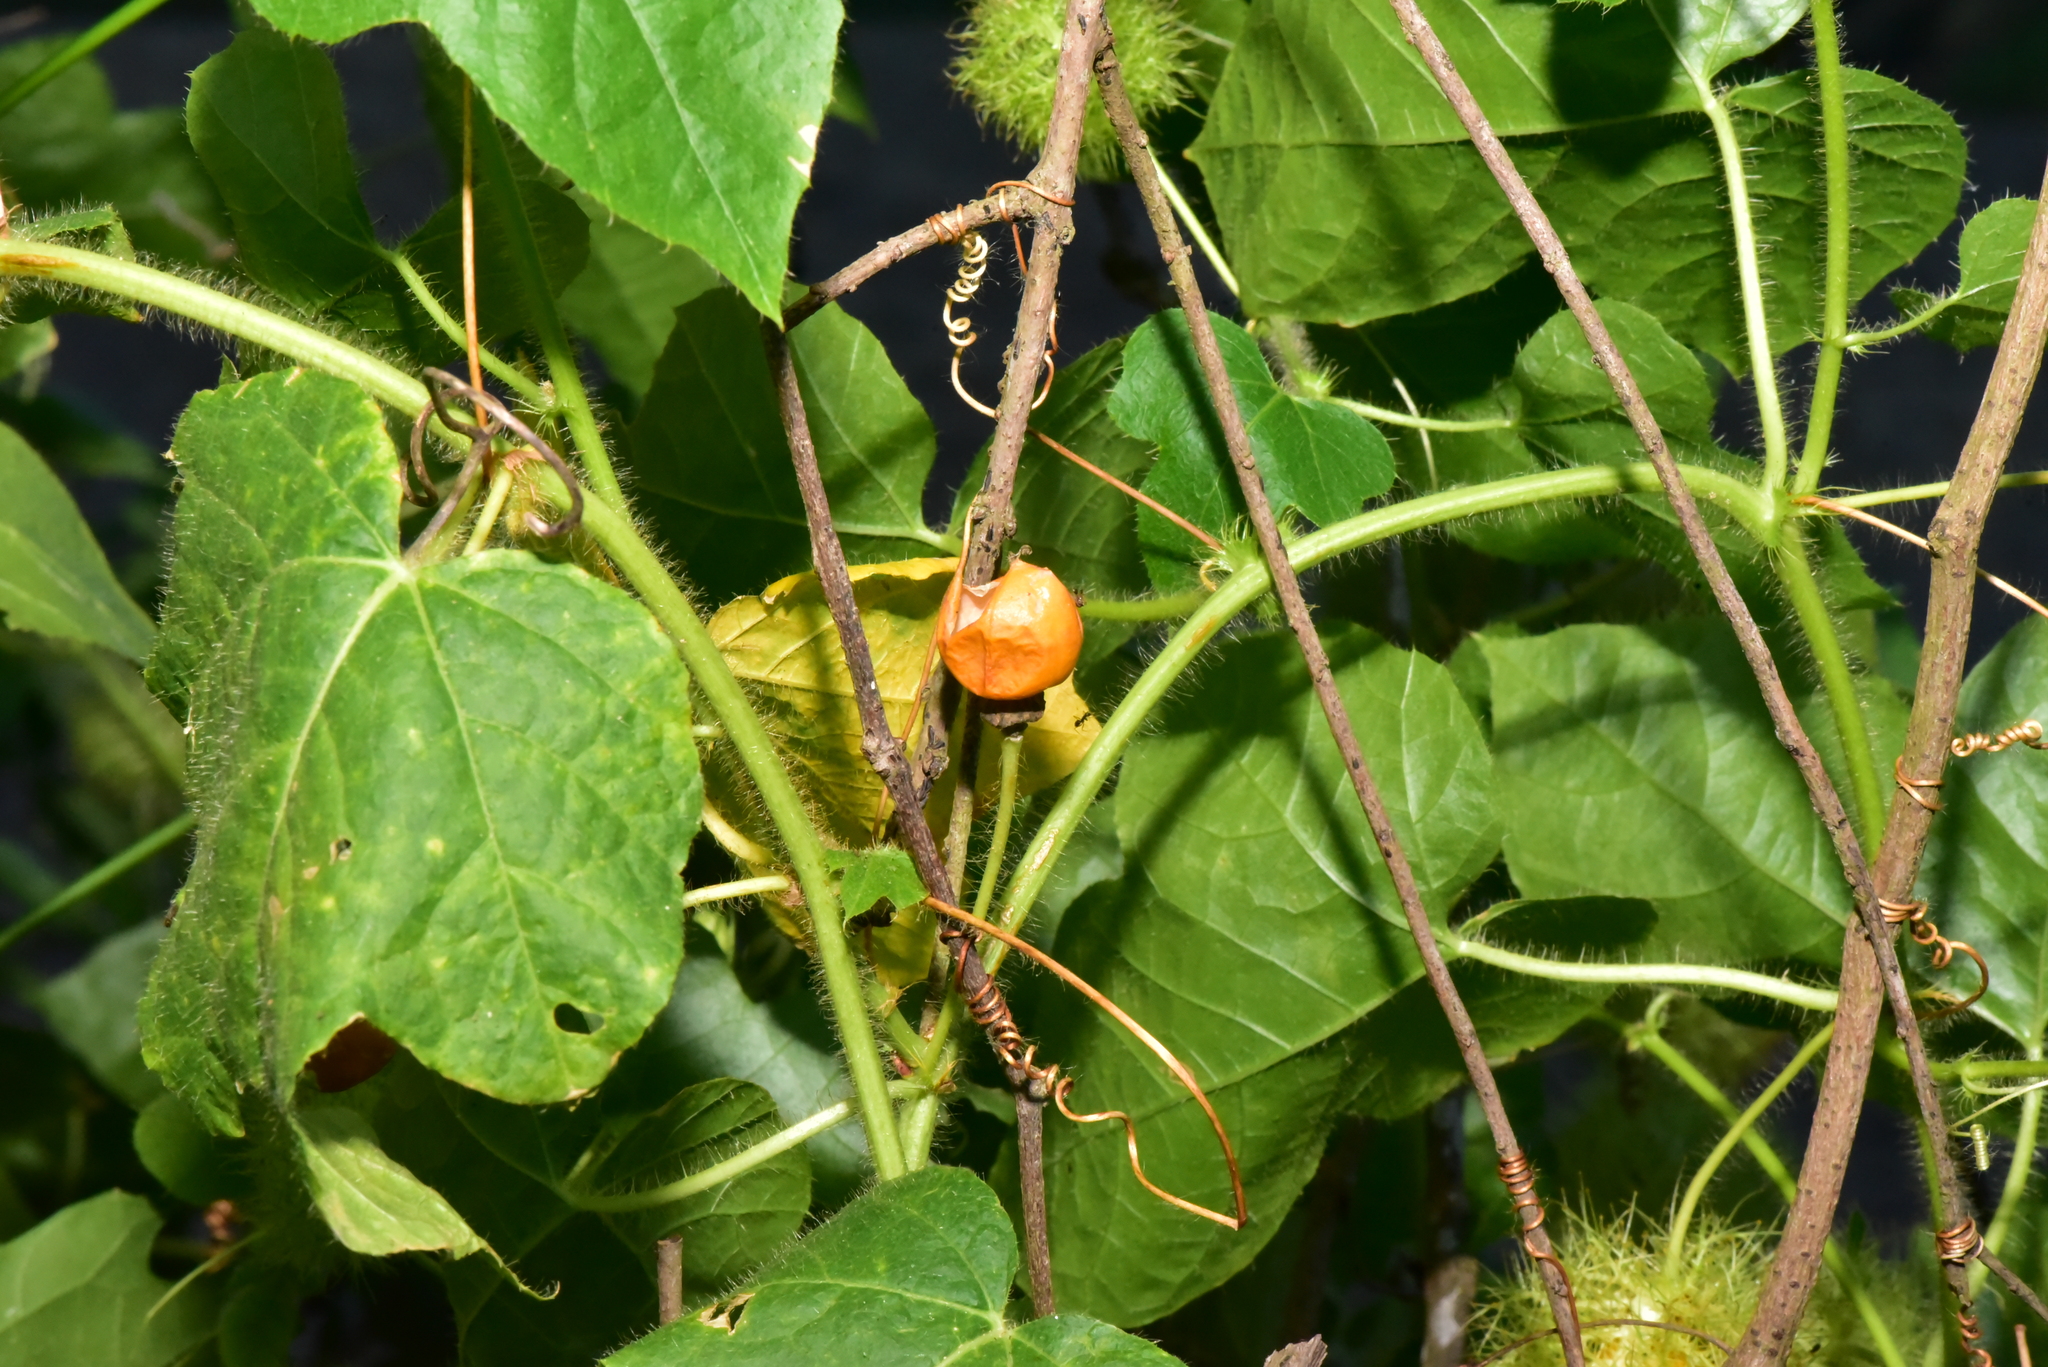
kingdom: Plantae
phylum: Tracheophyta
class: Magnoliopsida
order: Malpighiales
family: Passifloraceae
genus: Passiflora
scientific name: Passiflora vesicaria
